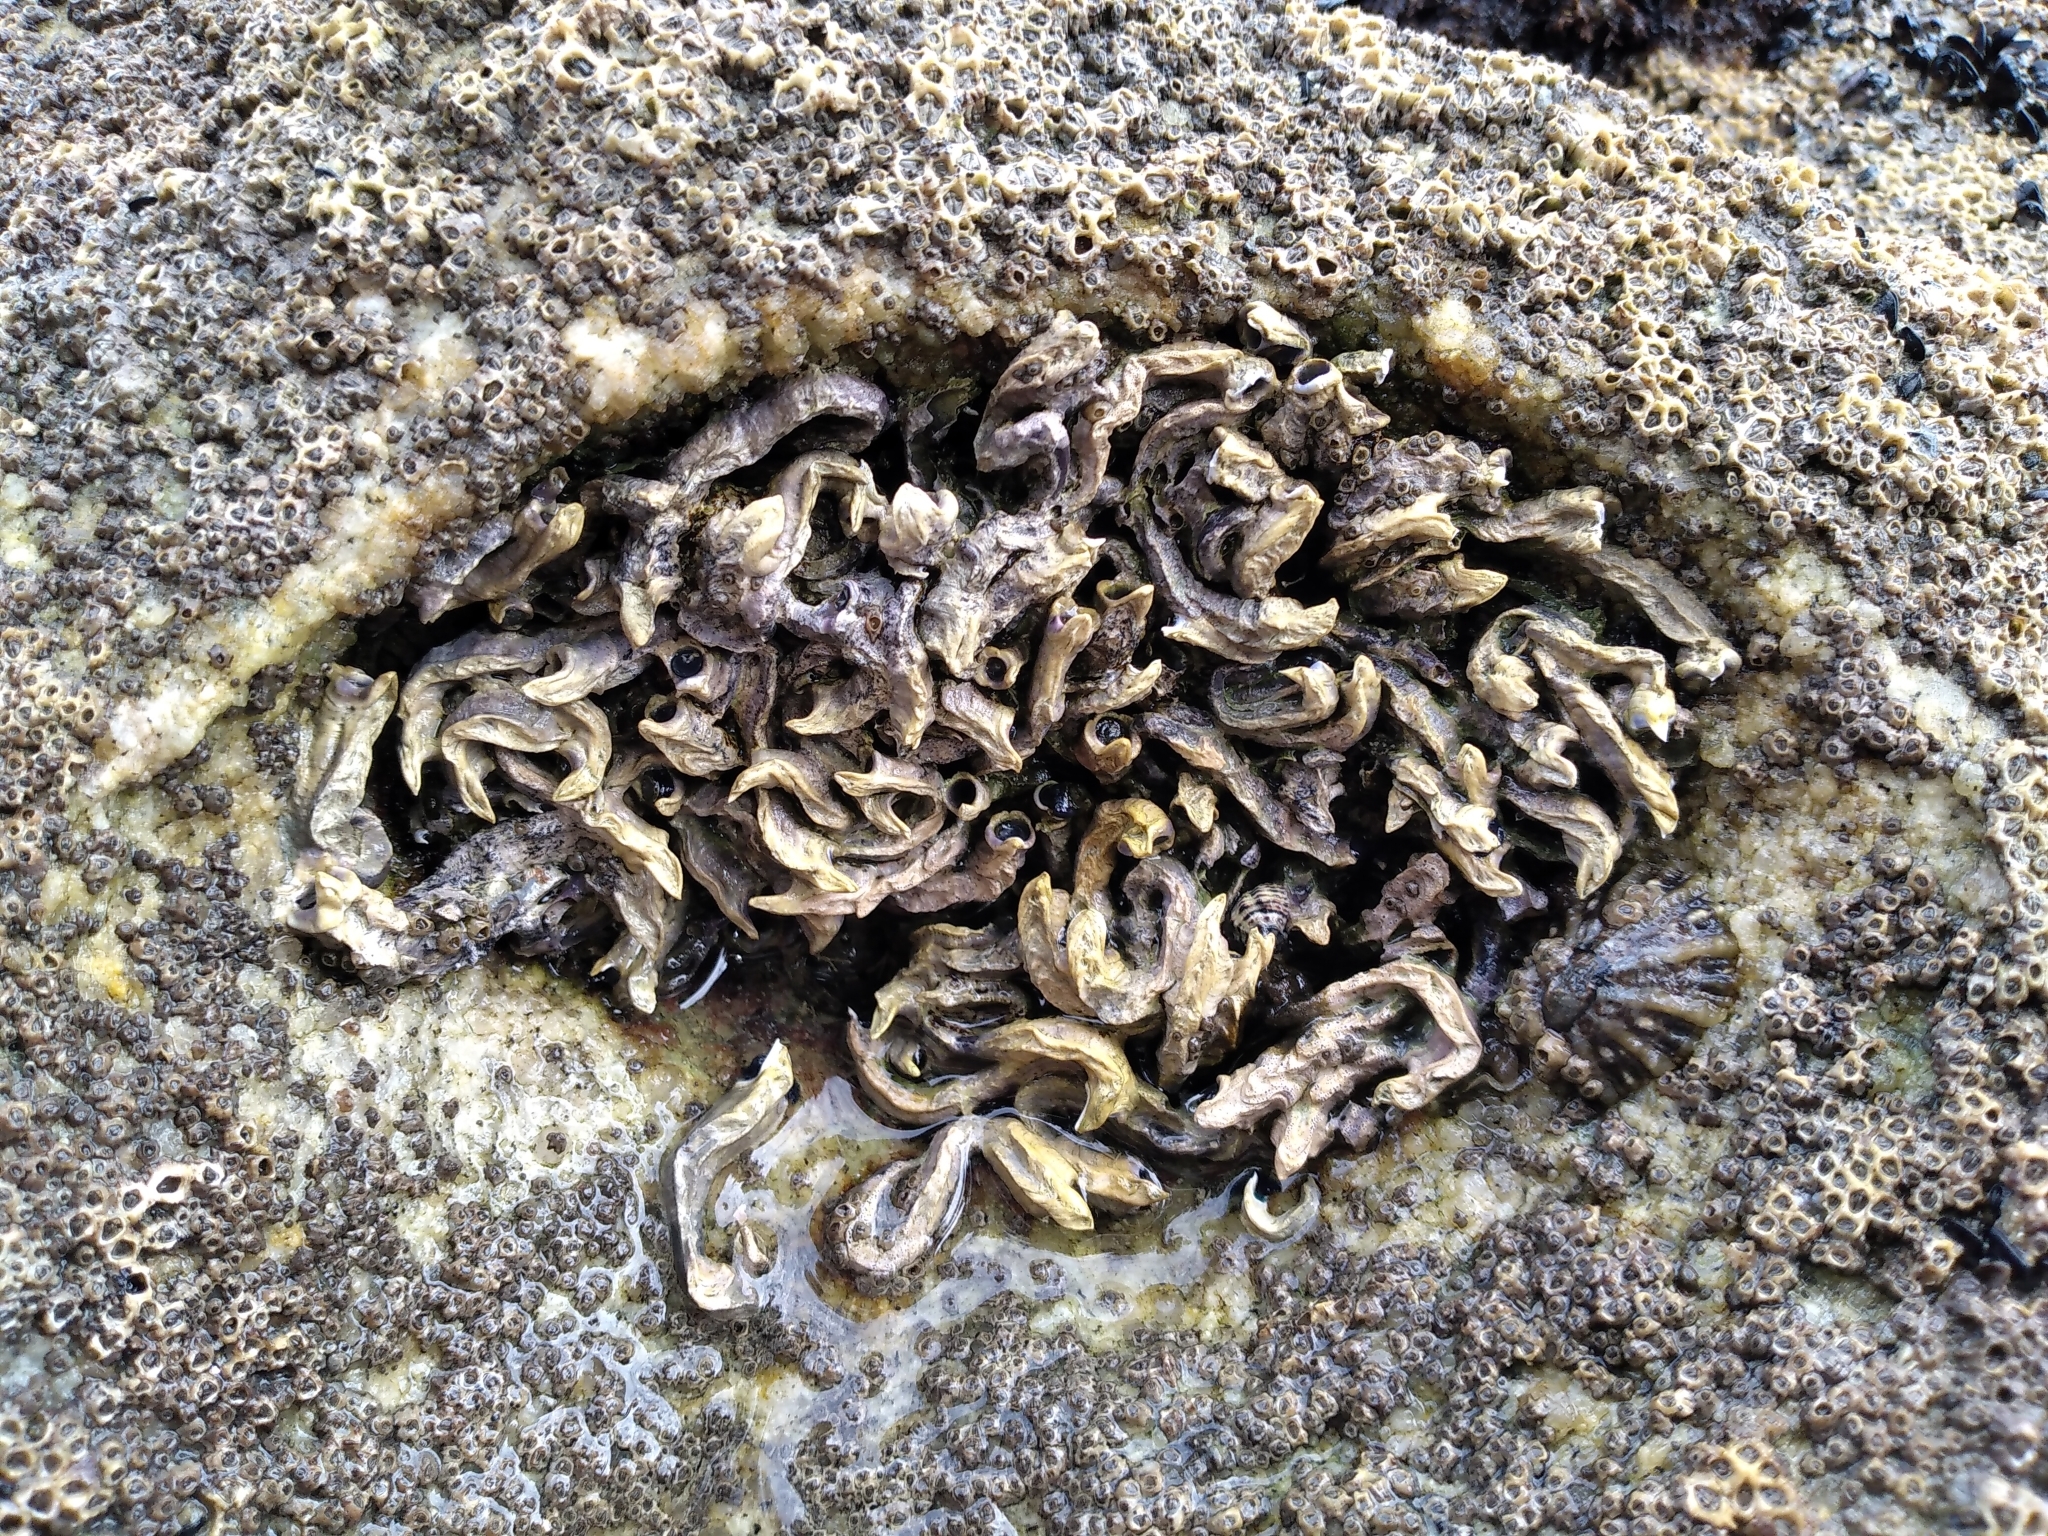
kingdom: Animalia
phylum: Annelida
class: Polychaeta
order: Sabellida
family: Serpulidae
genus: Spirobranchus
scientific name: Spirobranchus cariniferus
